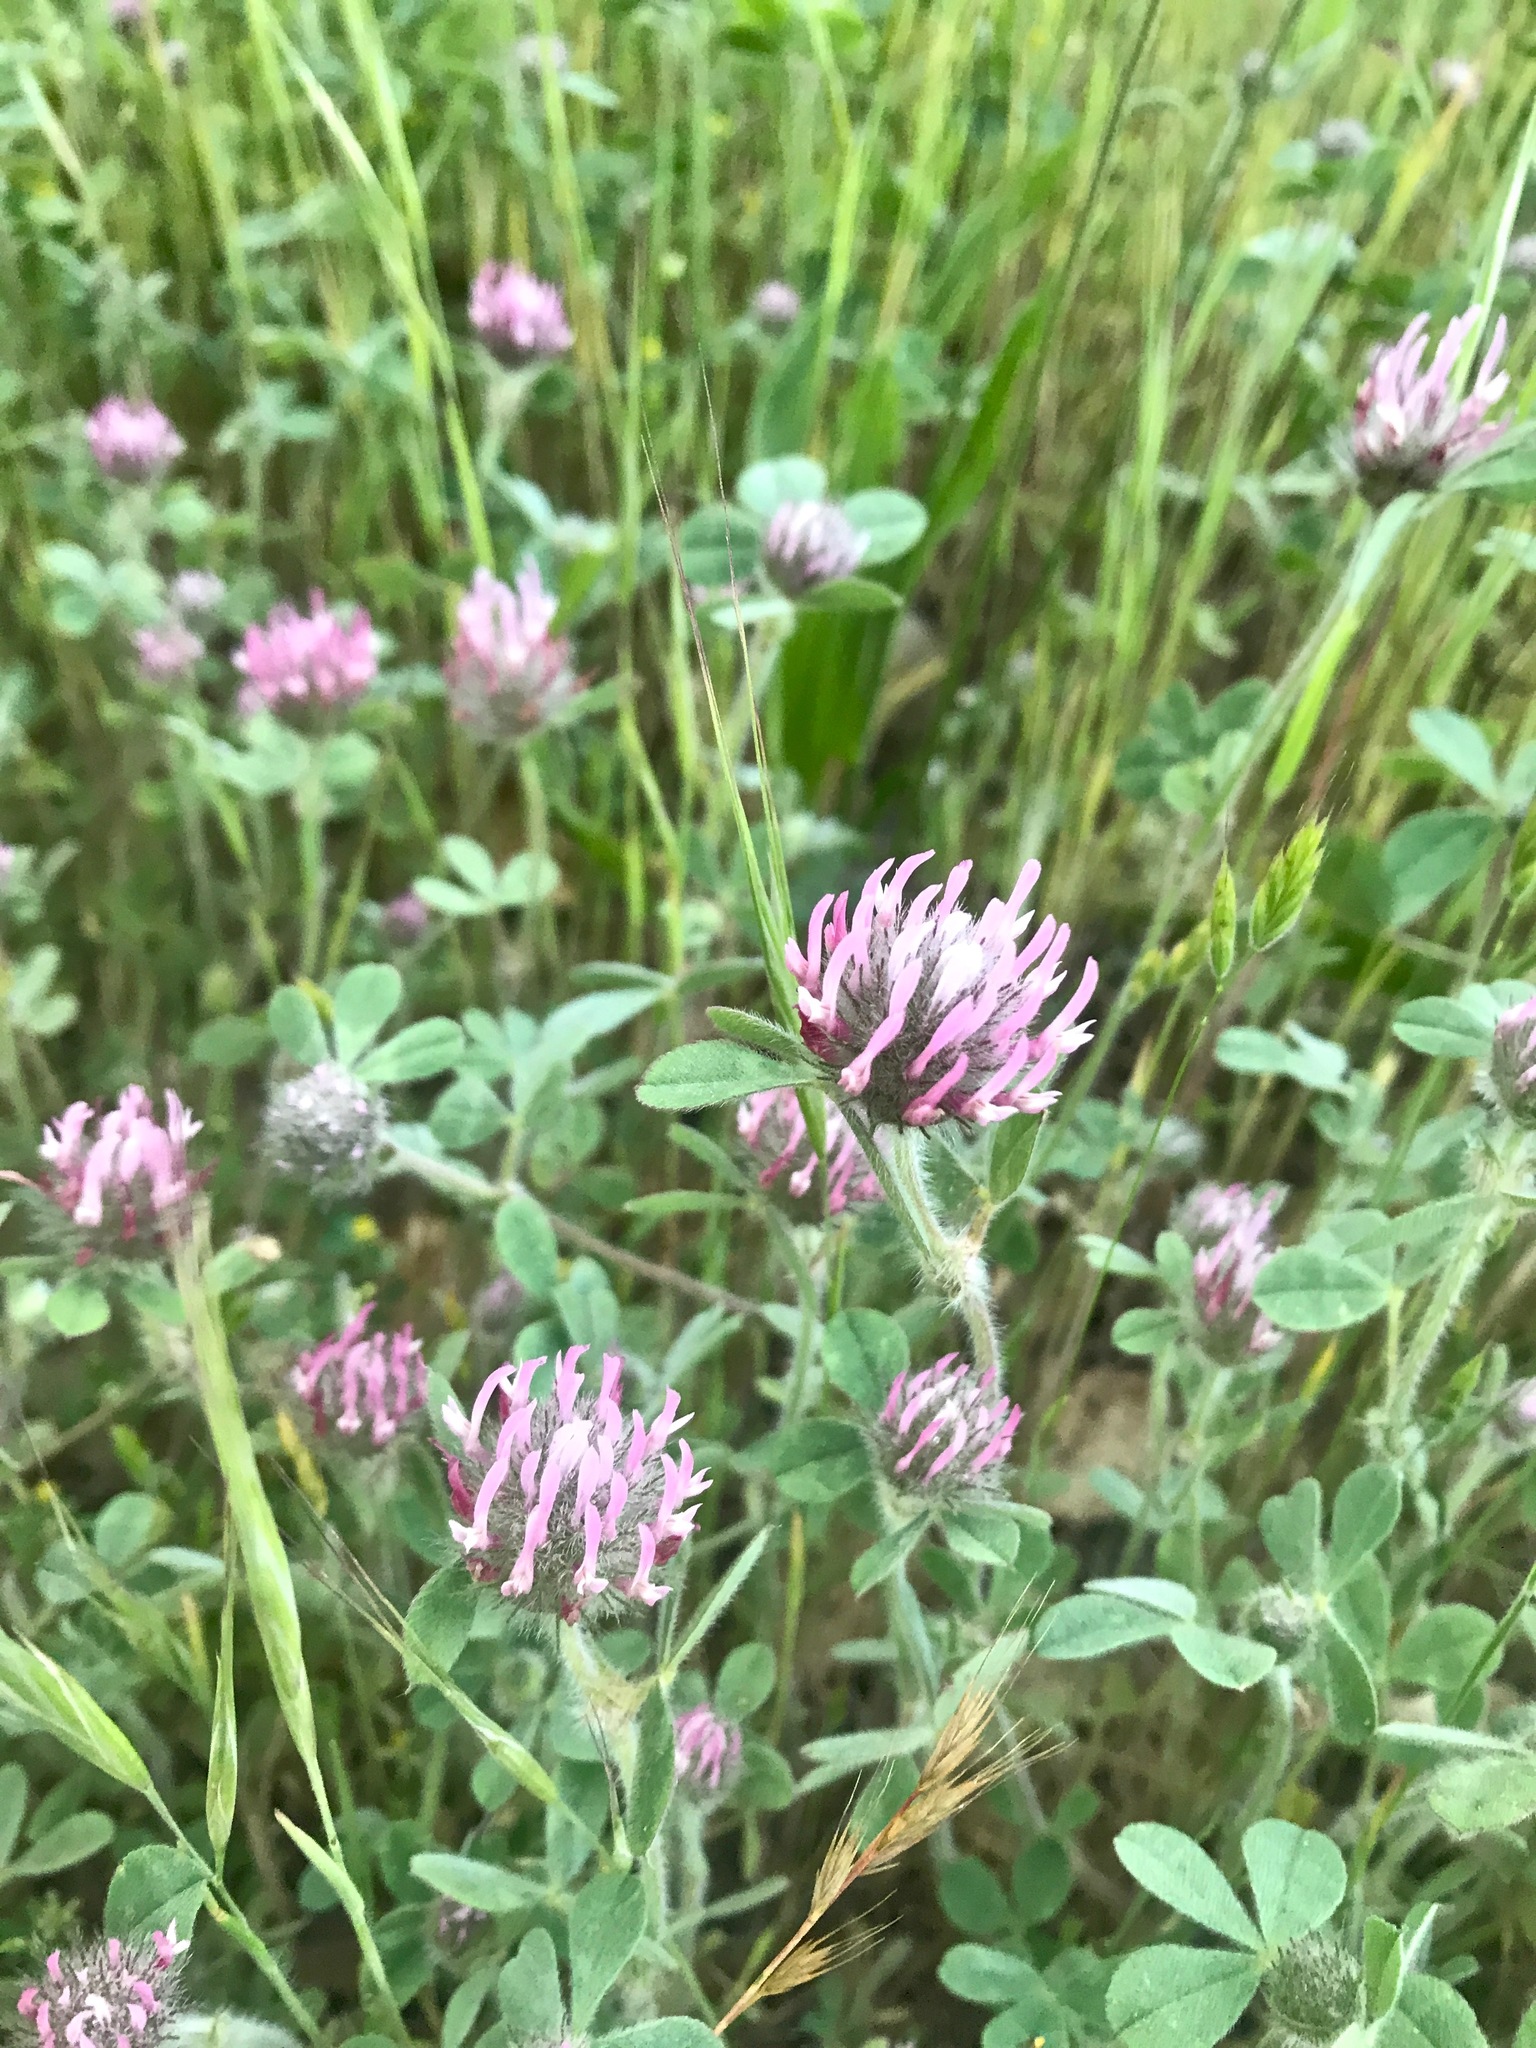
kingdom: Plantae
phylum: Tracheophyta
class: Magnoliopsida
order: Fabales
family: Fabaceae
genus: Trifolium
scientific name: Trifolium hirtum
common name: Rose clover
